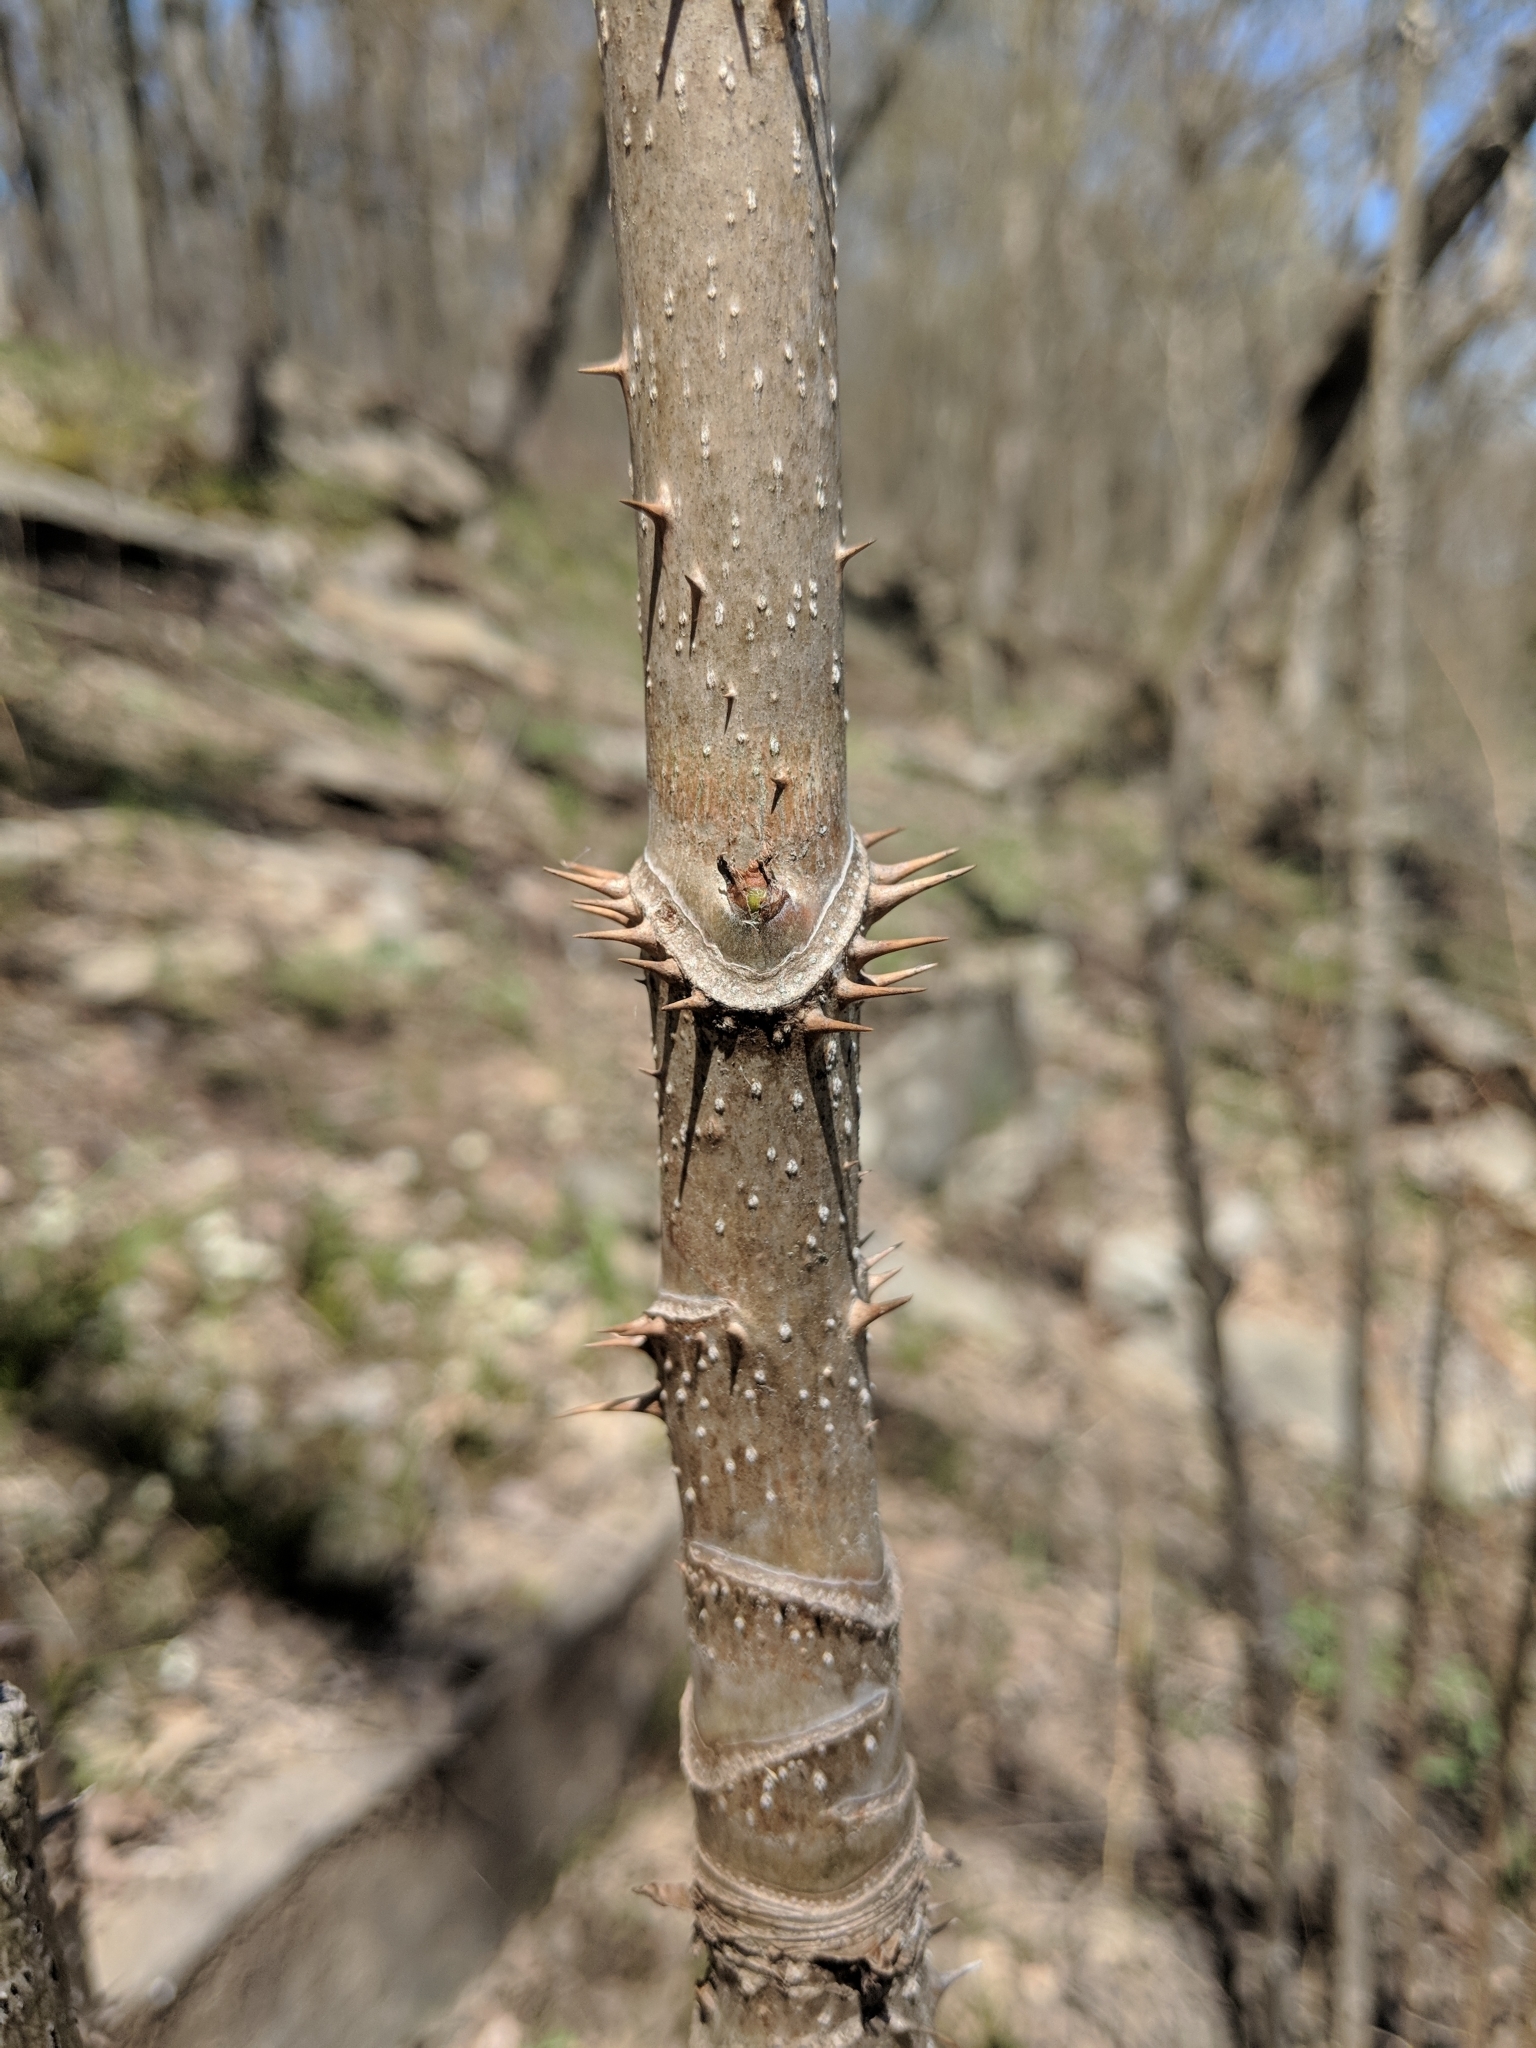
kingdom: Plantae
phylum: Tracheophyta
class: Magnoliopsida
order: Apiales
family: Araliaceae
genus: Aralia
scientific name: Aralia spinosa
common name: Hercules'-club
